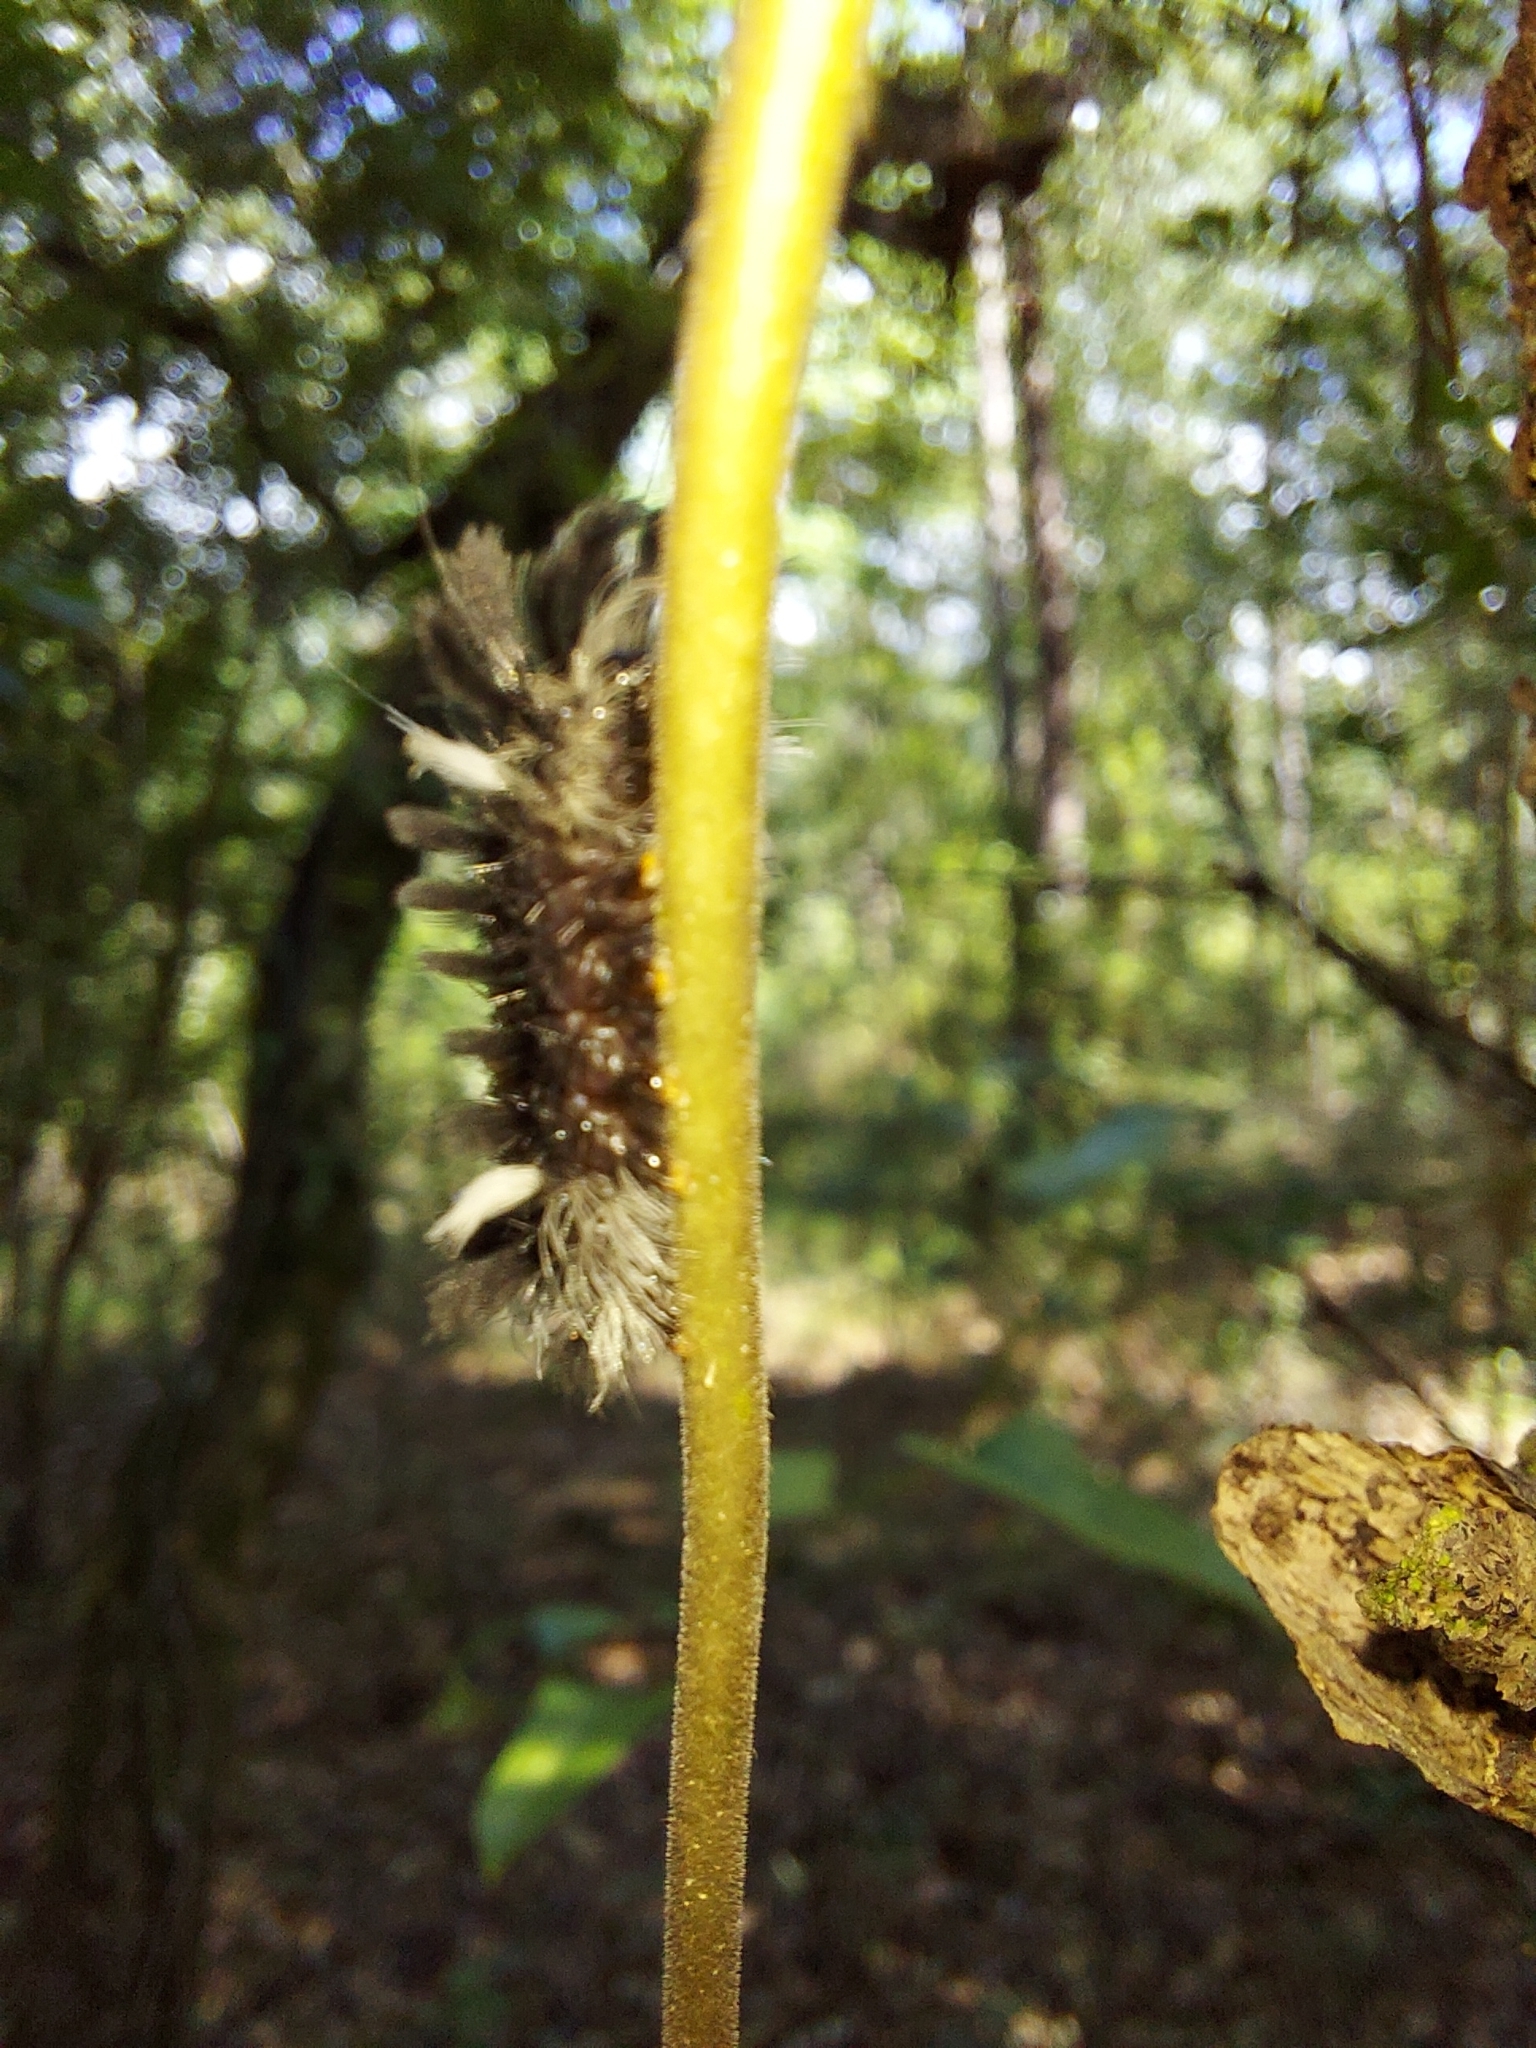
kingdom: Animalia
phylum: Arthropoda
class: Insecta
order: Lepidoptera
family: Erebidae
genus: Euchaetes
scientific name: Euchaetes egle
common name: Milkweed tussock moth
